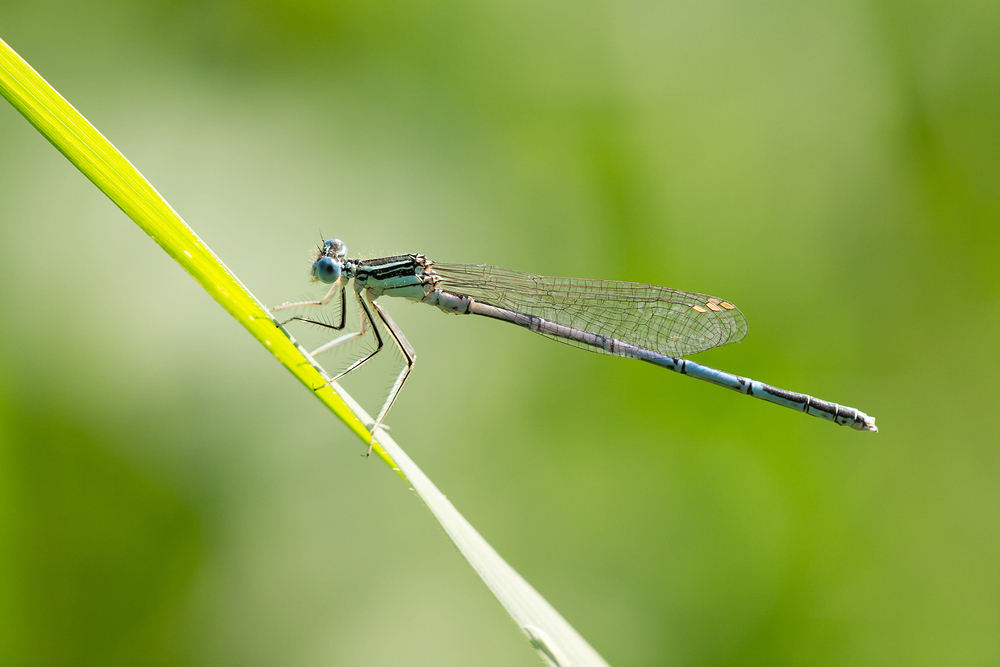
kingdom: Animalia
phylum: Arthropoda
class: Insecta
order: Odonata
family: Platycnemididae
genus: Platycnemis
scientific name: Platycnemis pennipes
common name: White-legged damselfly
